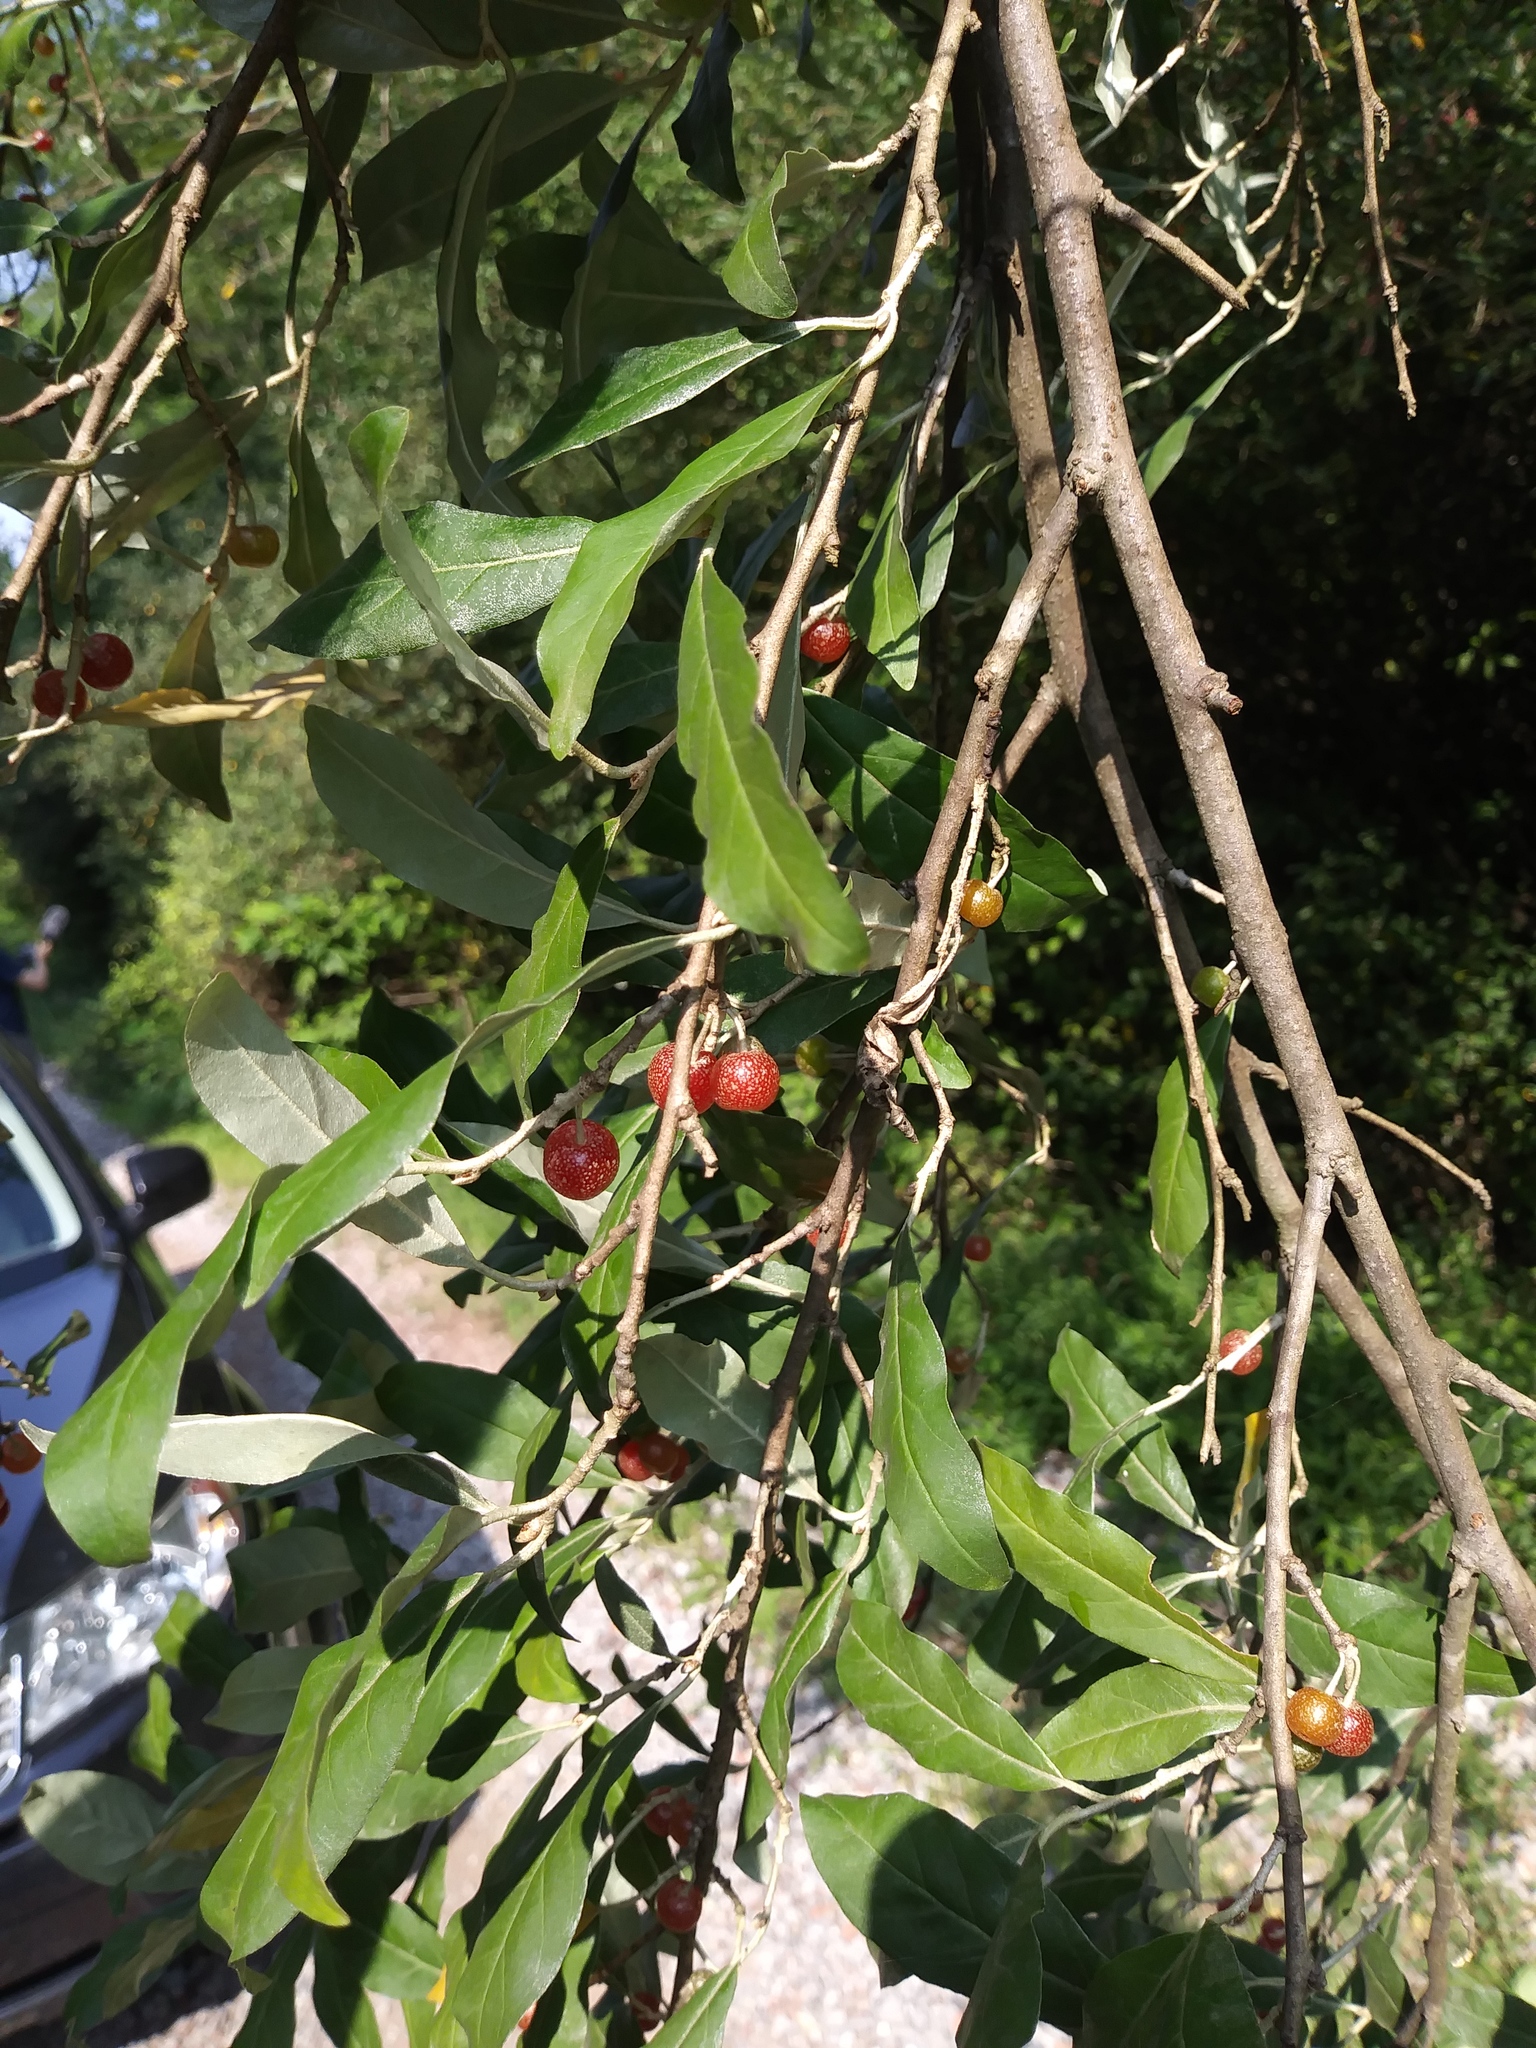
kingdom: Plantae
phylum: Tracheophyta
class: Magnoliopsida
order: Rosales
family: Elaeagnaceae
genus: Elaeagnus
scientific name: Elaeagnus umbellata
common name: Autumn olive
